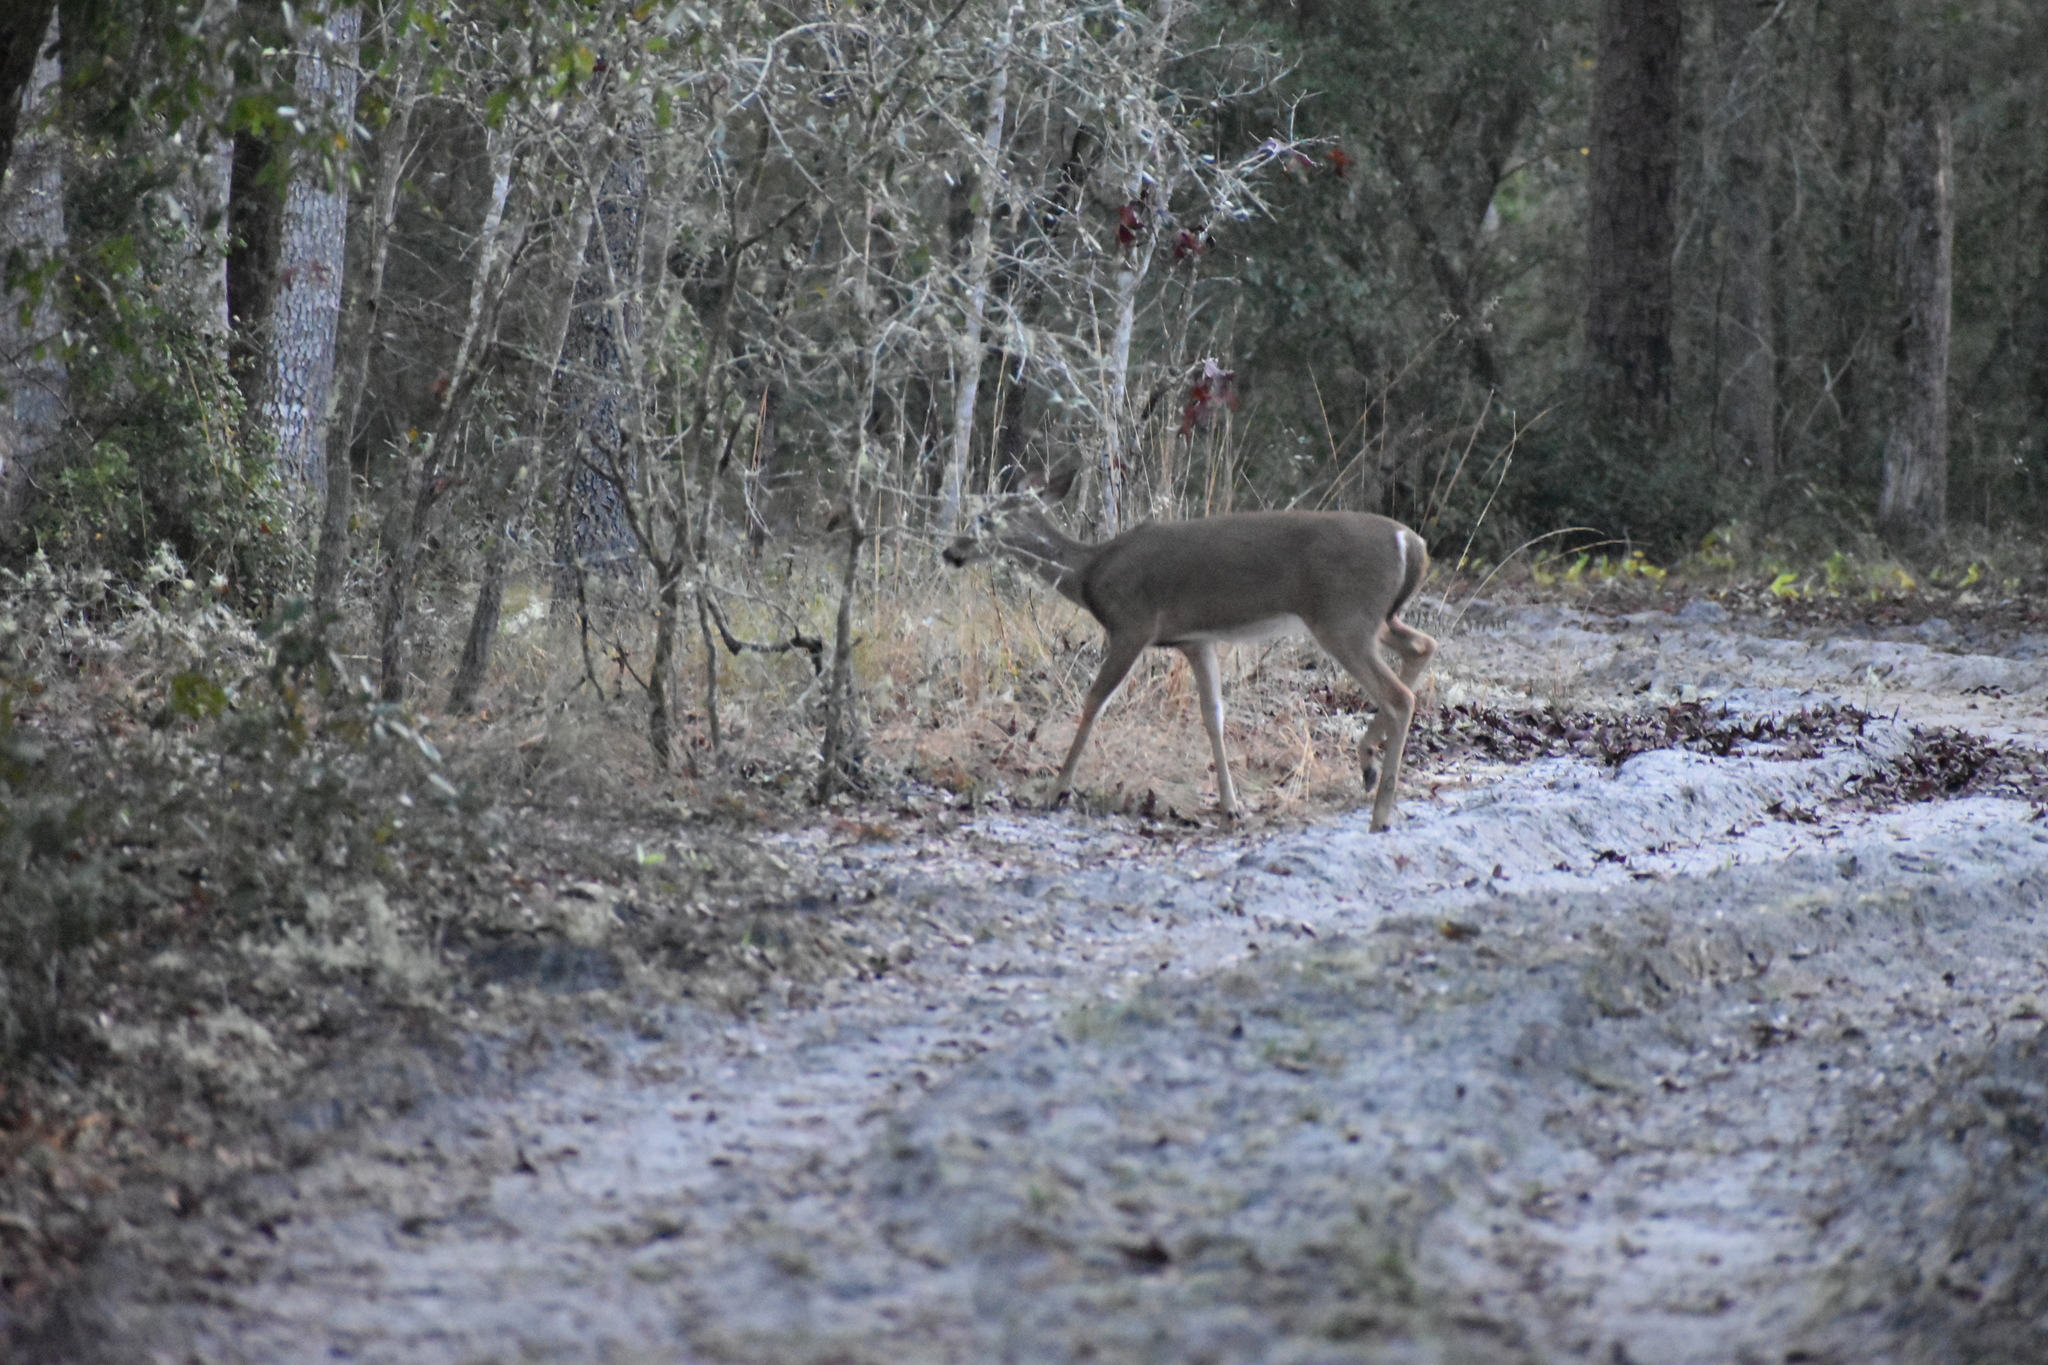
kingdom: Animalia
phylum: Chordata
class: Mammalia
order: Artiodactyla
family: Cervidae
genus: Odocoileus
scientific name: Odocoileus virginianus
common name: White-tailed deer
